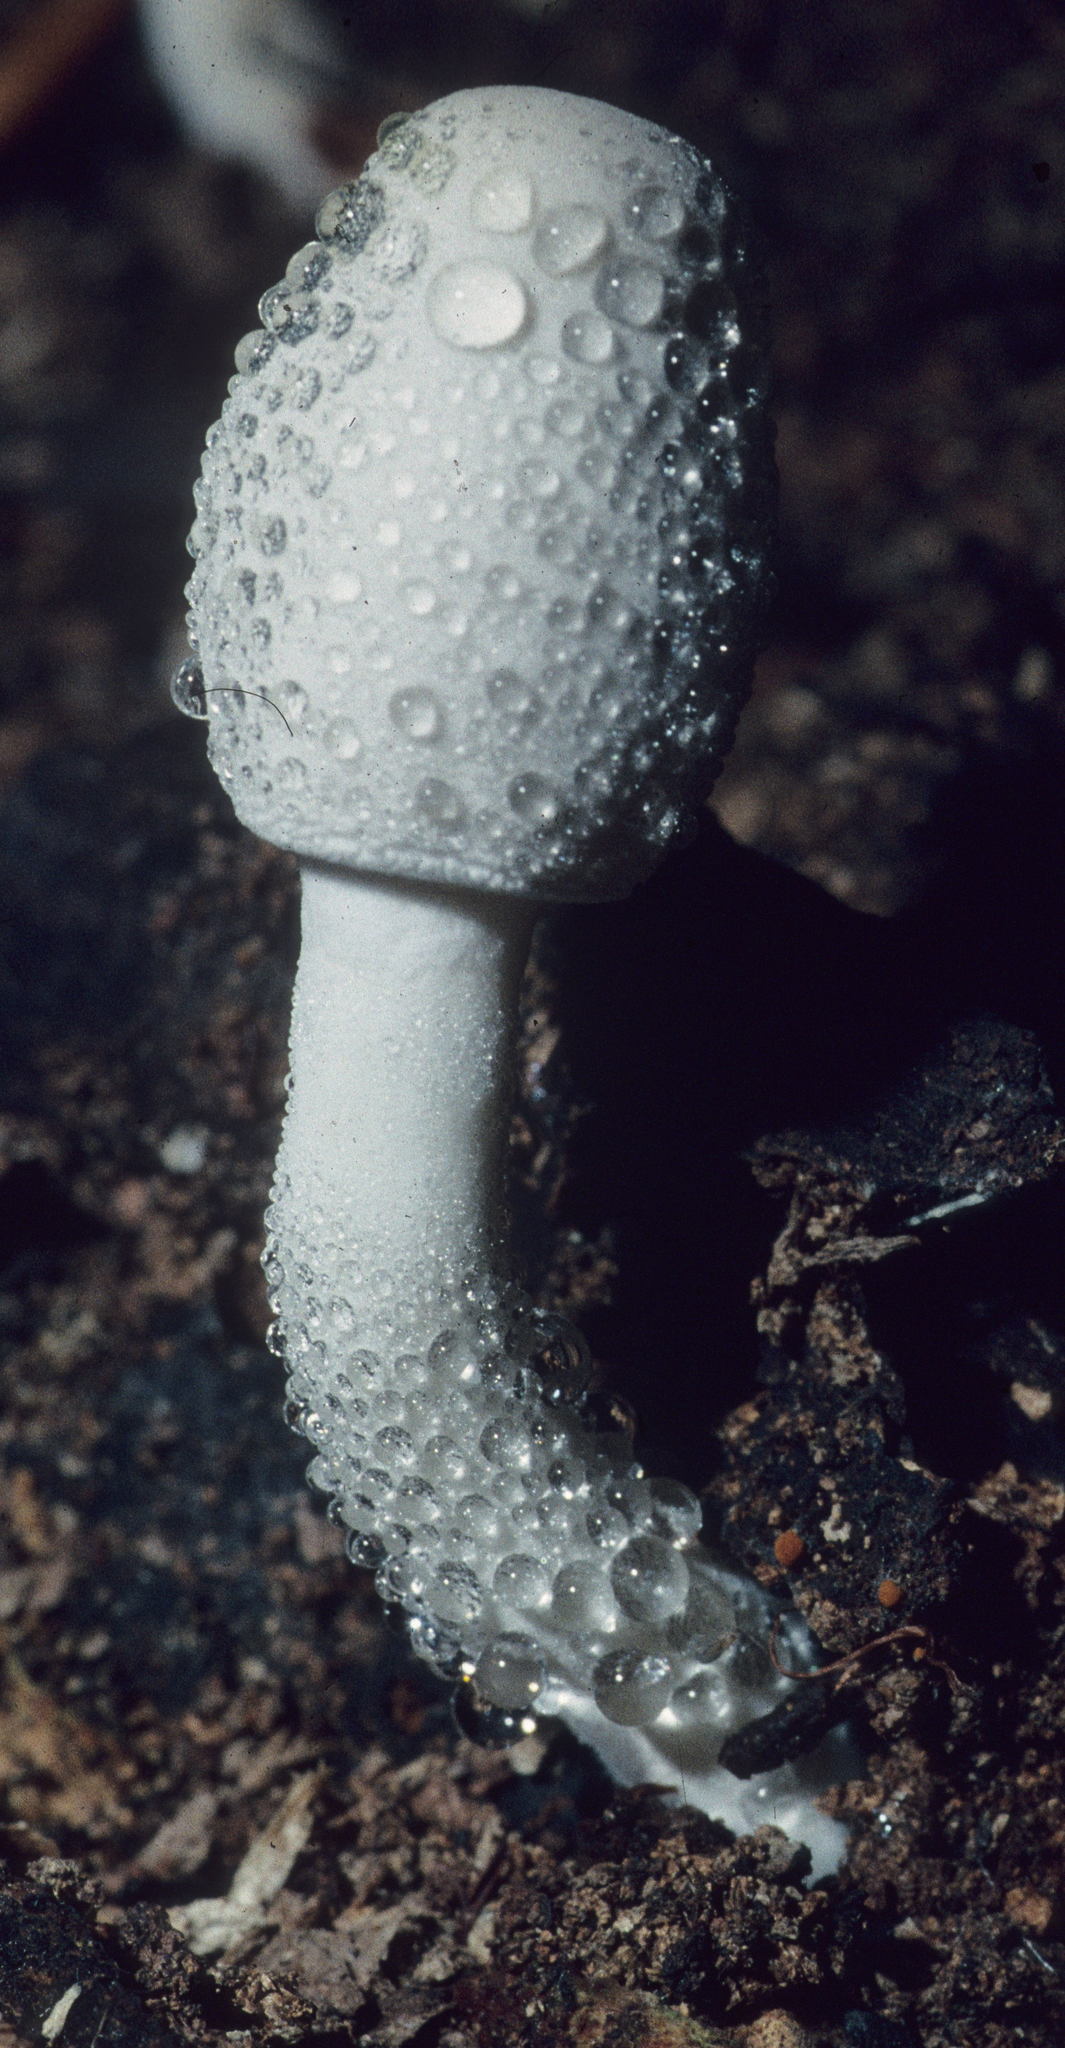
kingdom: Fungi
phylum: Basidiomycota
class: Agaricomycetes
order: Agaricales
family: Agaricaceae
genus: Leucocoprinus
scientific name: Leucocoprinus cepistipes
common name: Onion-stalk parasol
